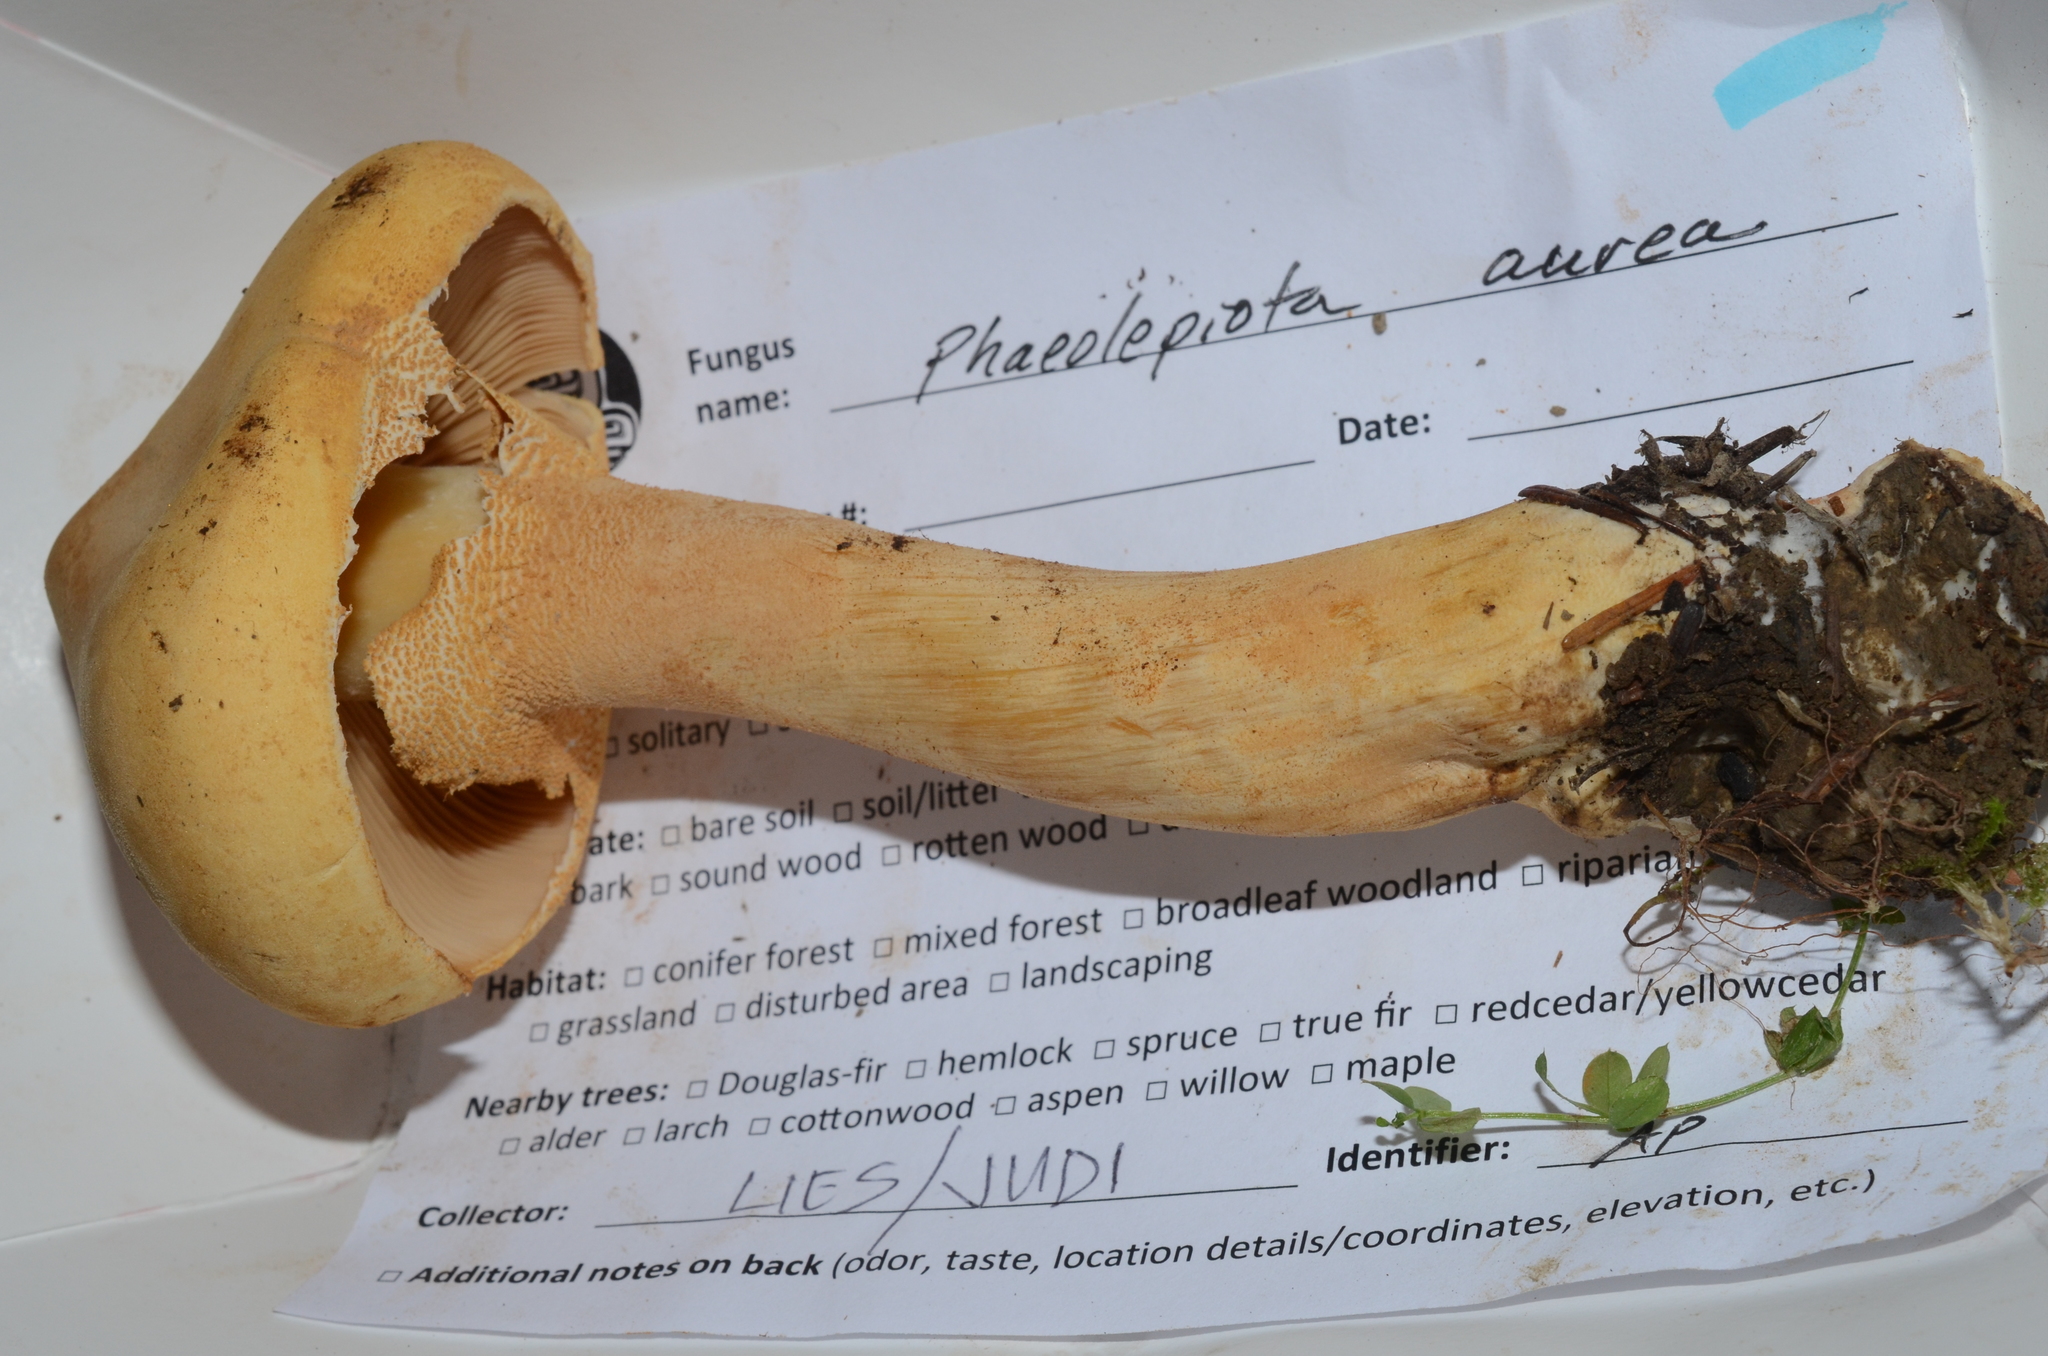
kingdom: Fungi
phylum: Basidiomycota
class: Agaricomycetes
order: Agaricales
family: Tricholomataceae
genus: Phaeolepiota
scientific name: Phaeolepiota aurea
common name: Golden bootleg
